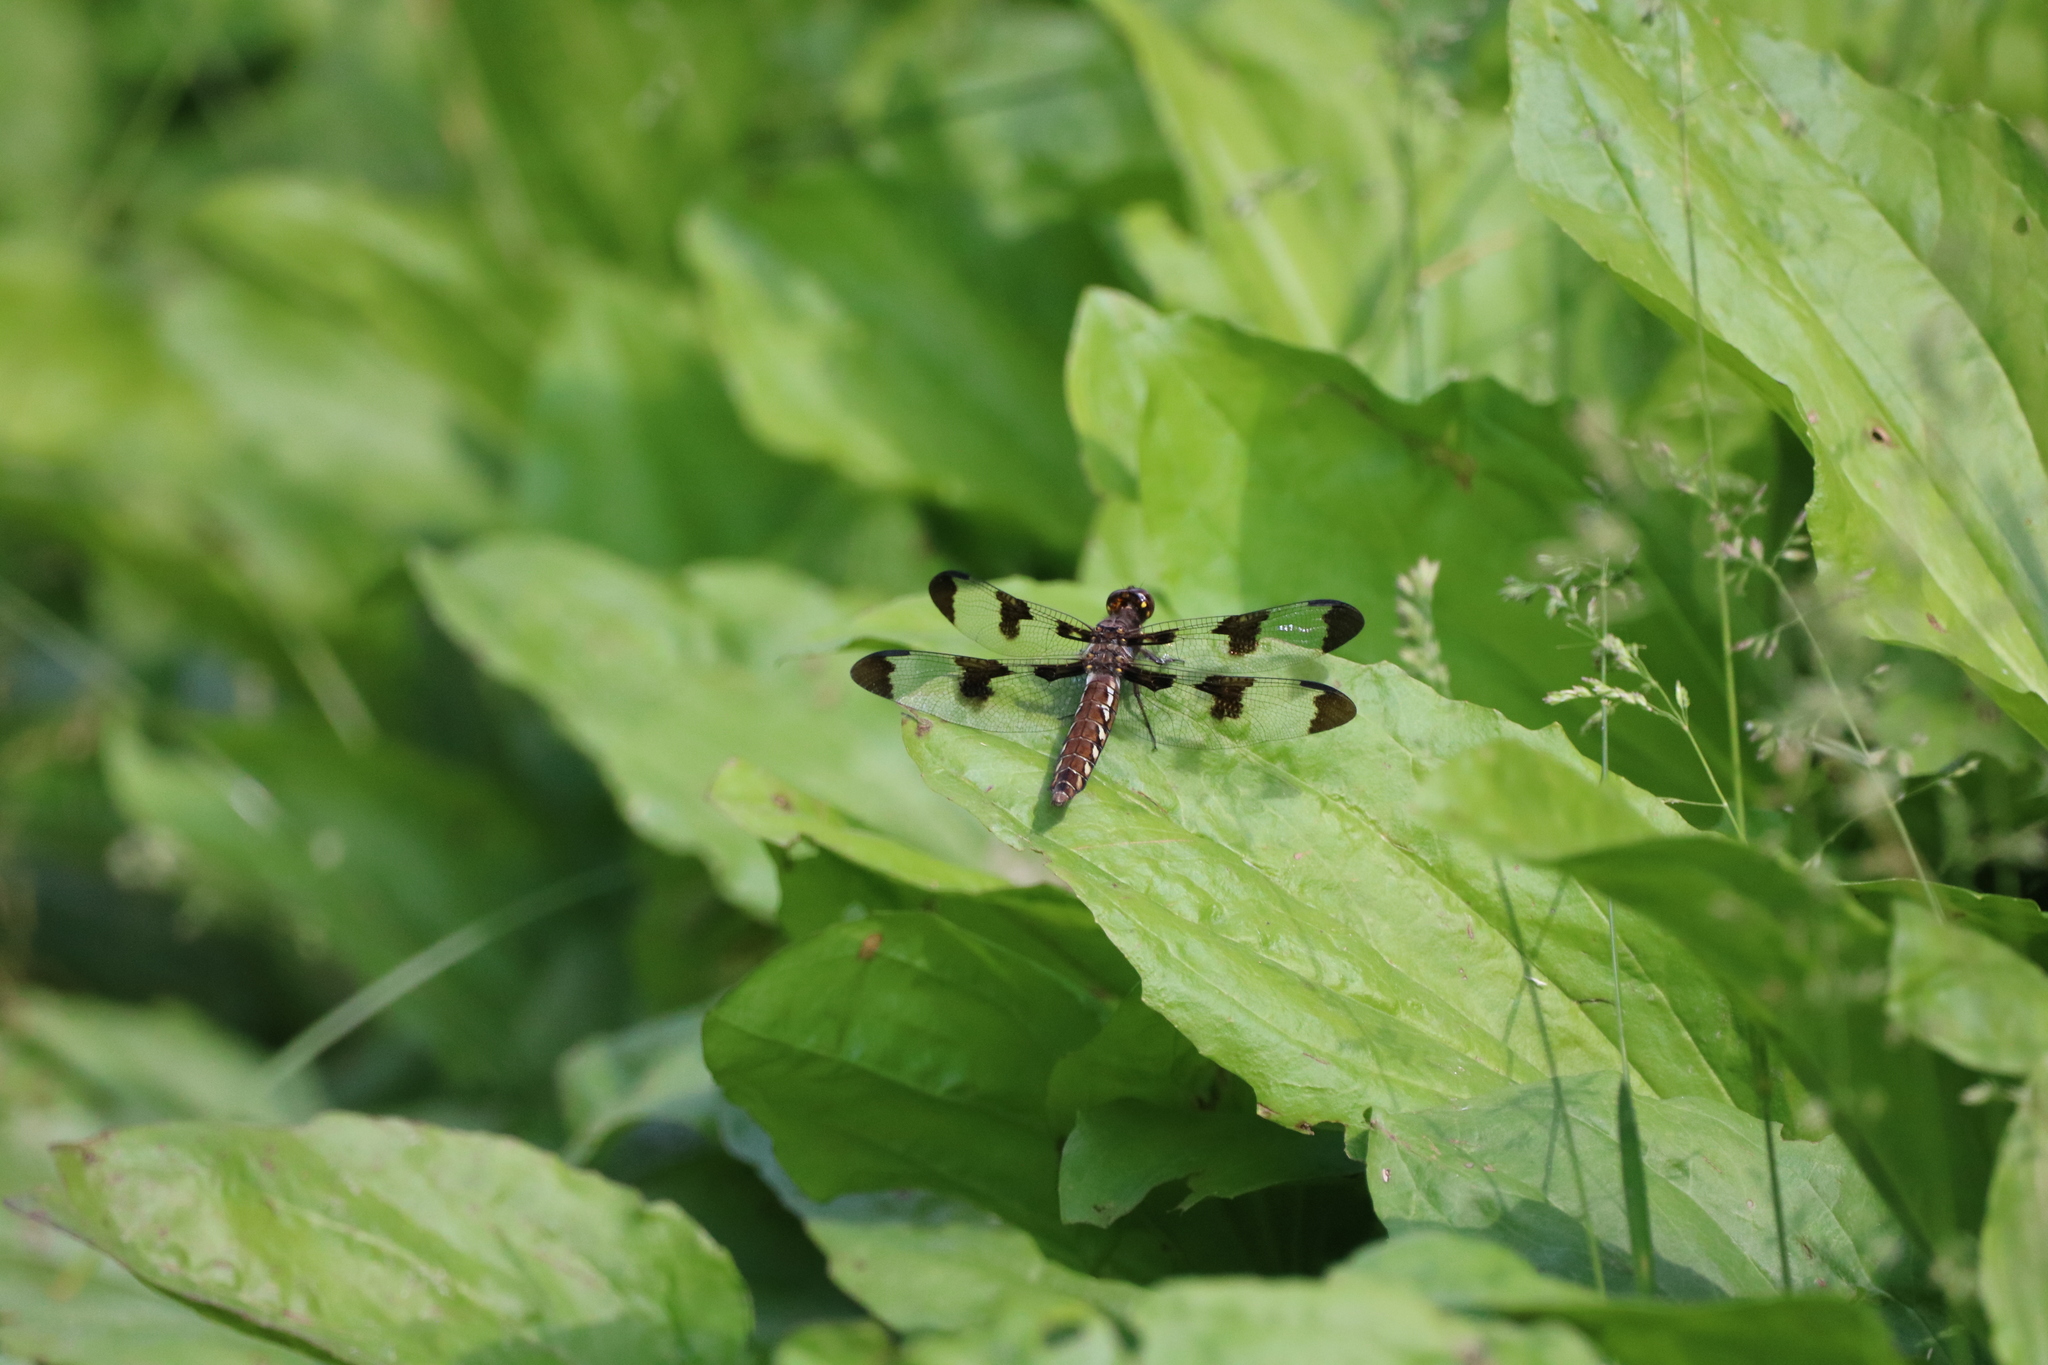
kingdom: Animalia
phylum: Arthropoda
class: Insecta
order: Odonata
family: Libellulidae
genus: Plathemis
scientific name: Plathemis lydia
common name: Common whitetail
